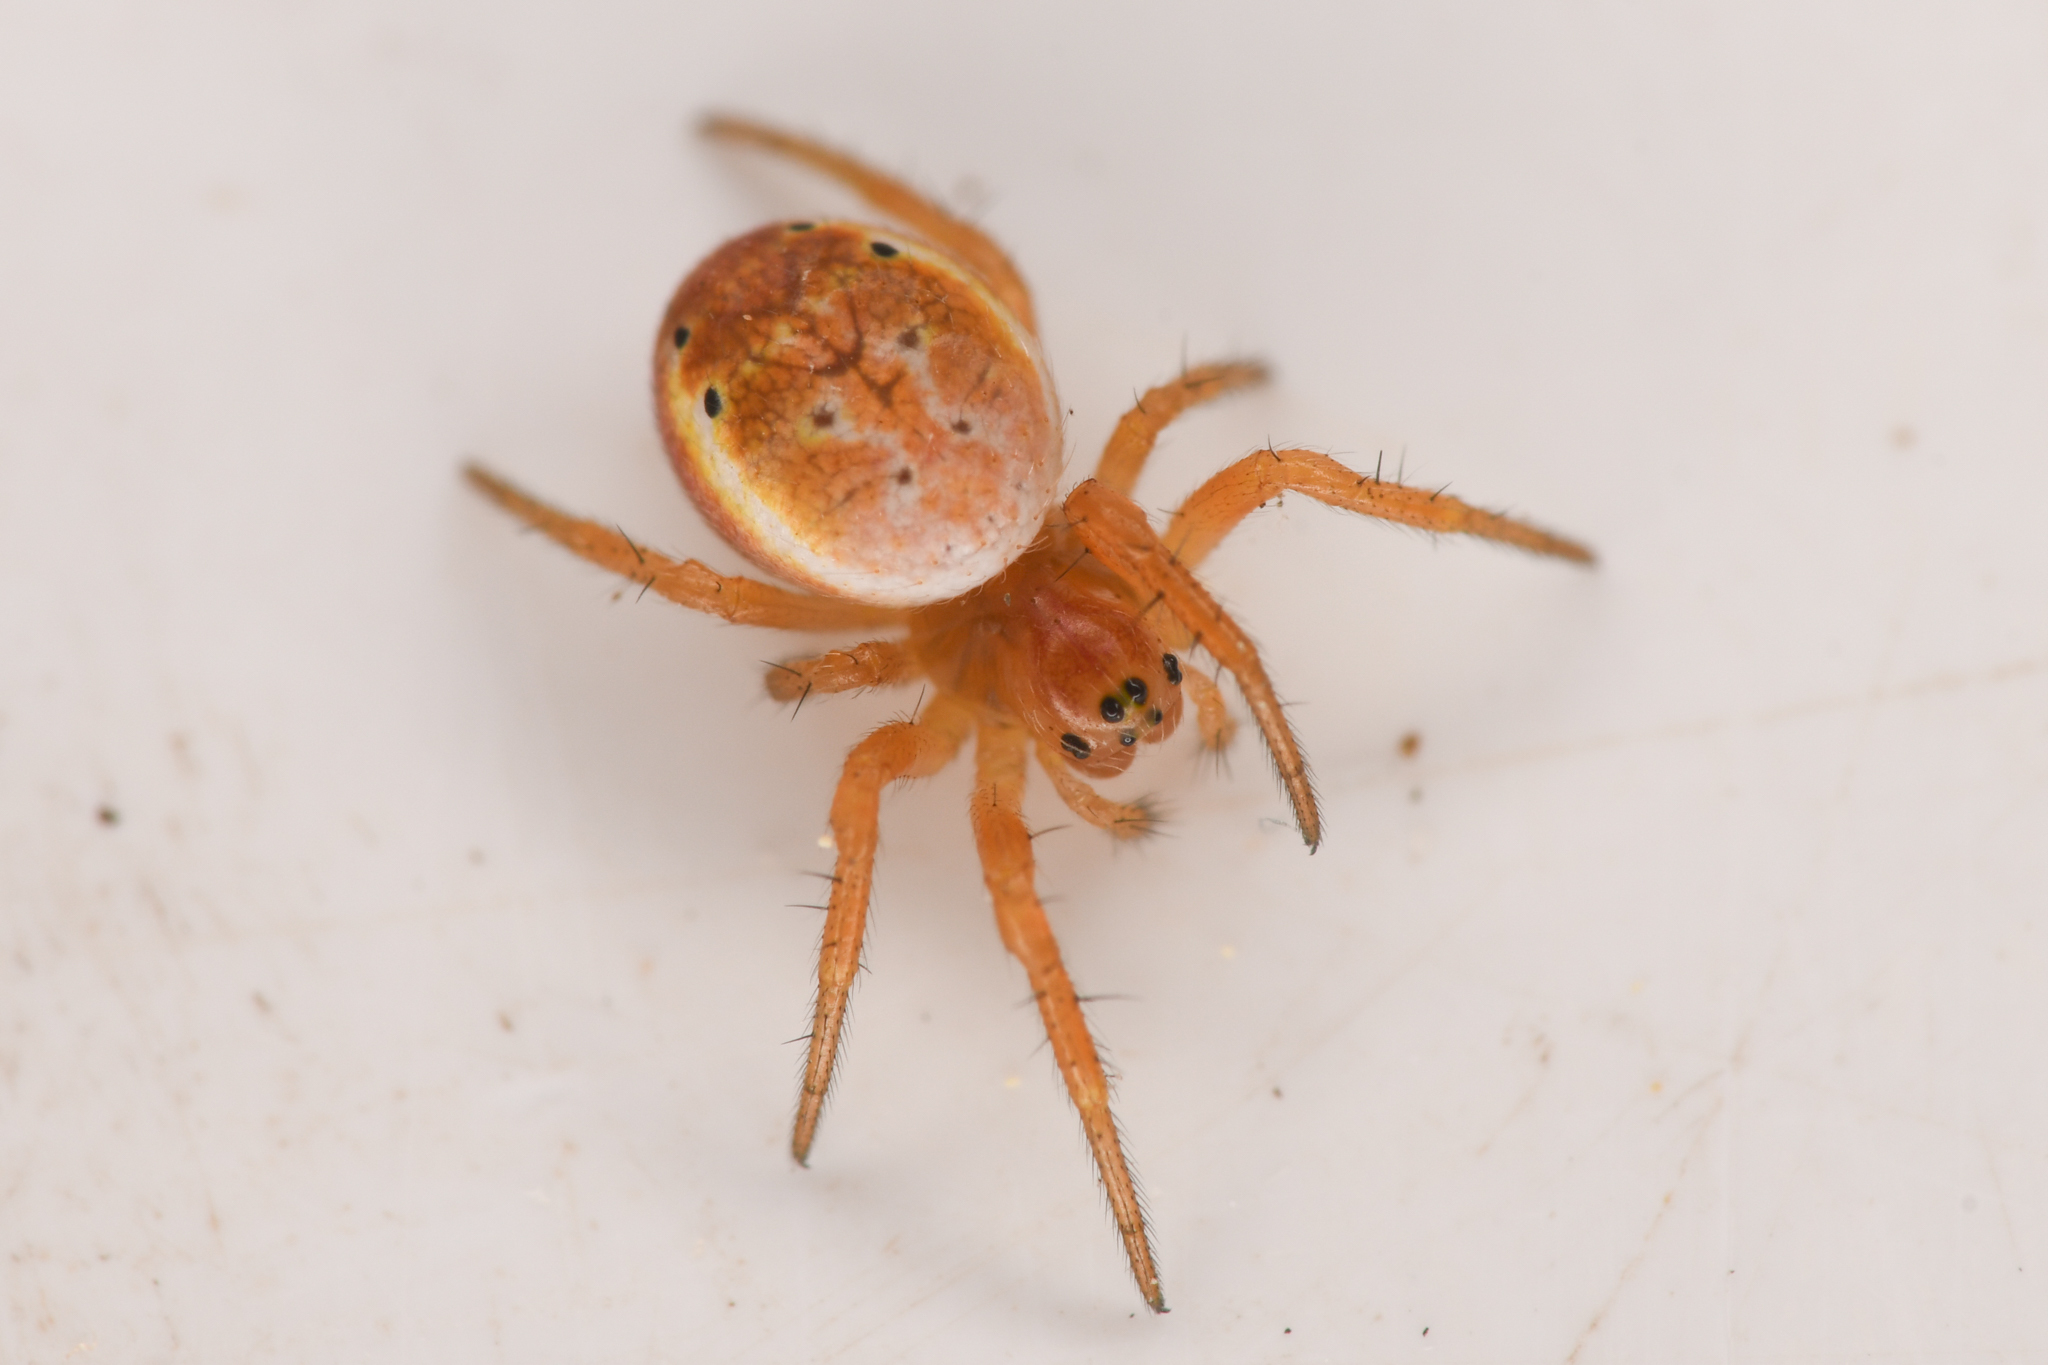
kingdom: Animalia
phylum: Arthropoda
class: Arachnida
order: Araneae
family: Araneidae
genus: Araniella
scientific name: Araniella displicata
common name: Sixspotted orb weaver
